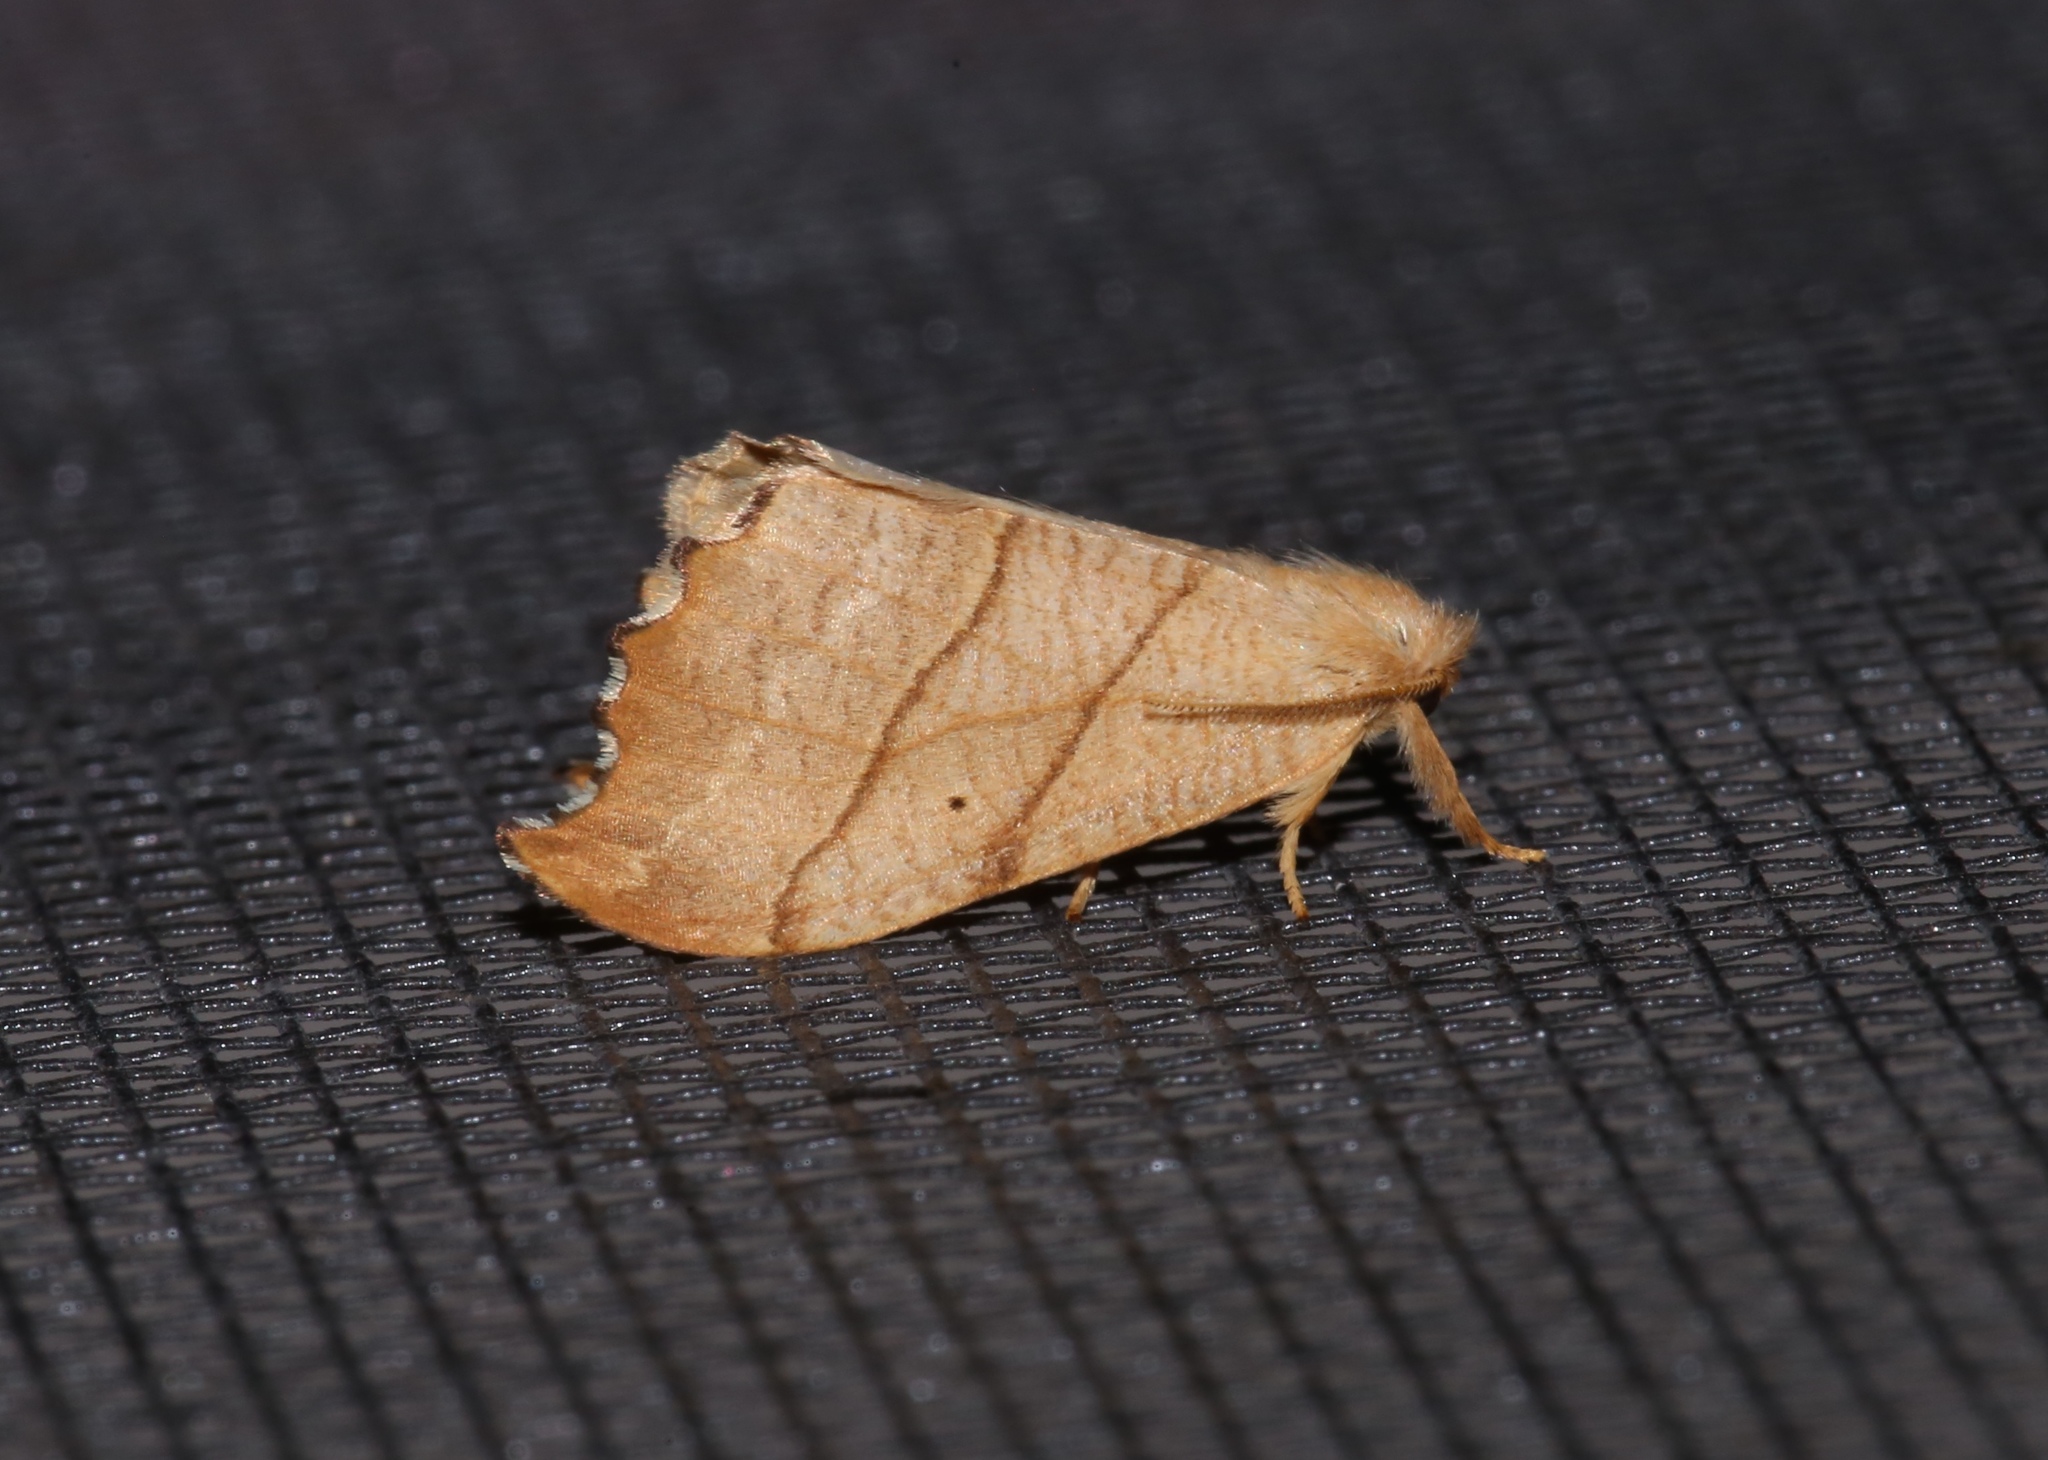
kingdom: Animalia
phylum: Arthropoda
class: Insecta
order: Lepidoptera
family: Drepanidae
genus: Falcaria
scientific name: Falcaria bilineata
